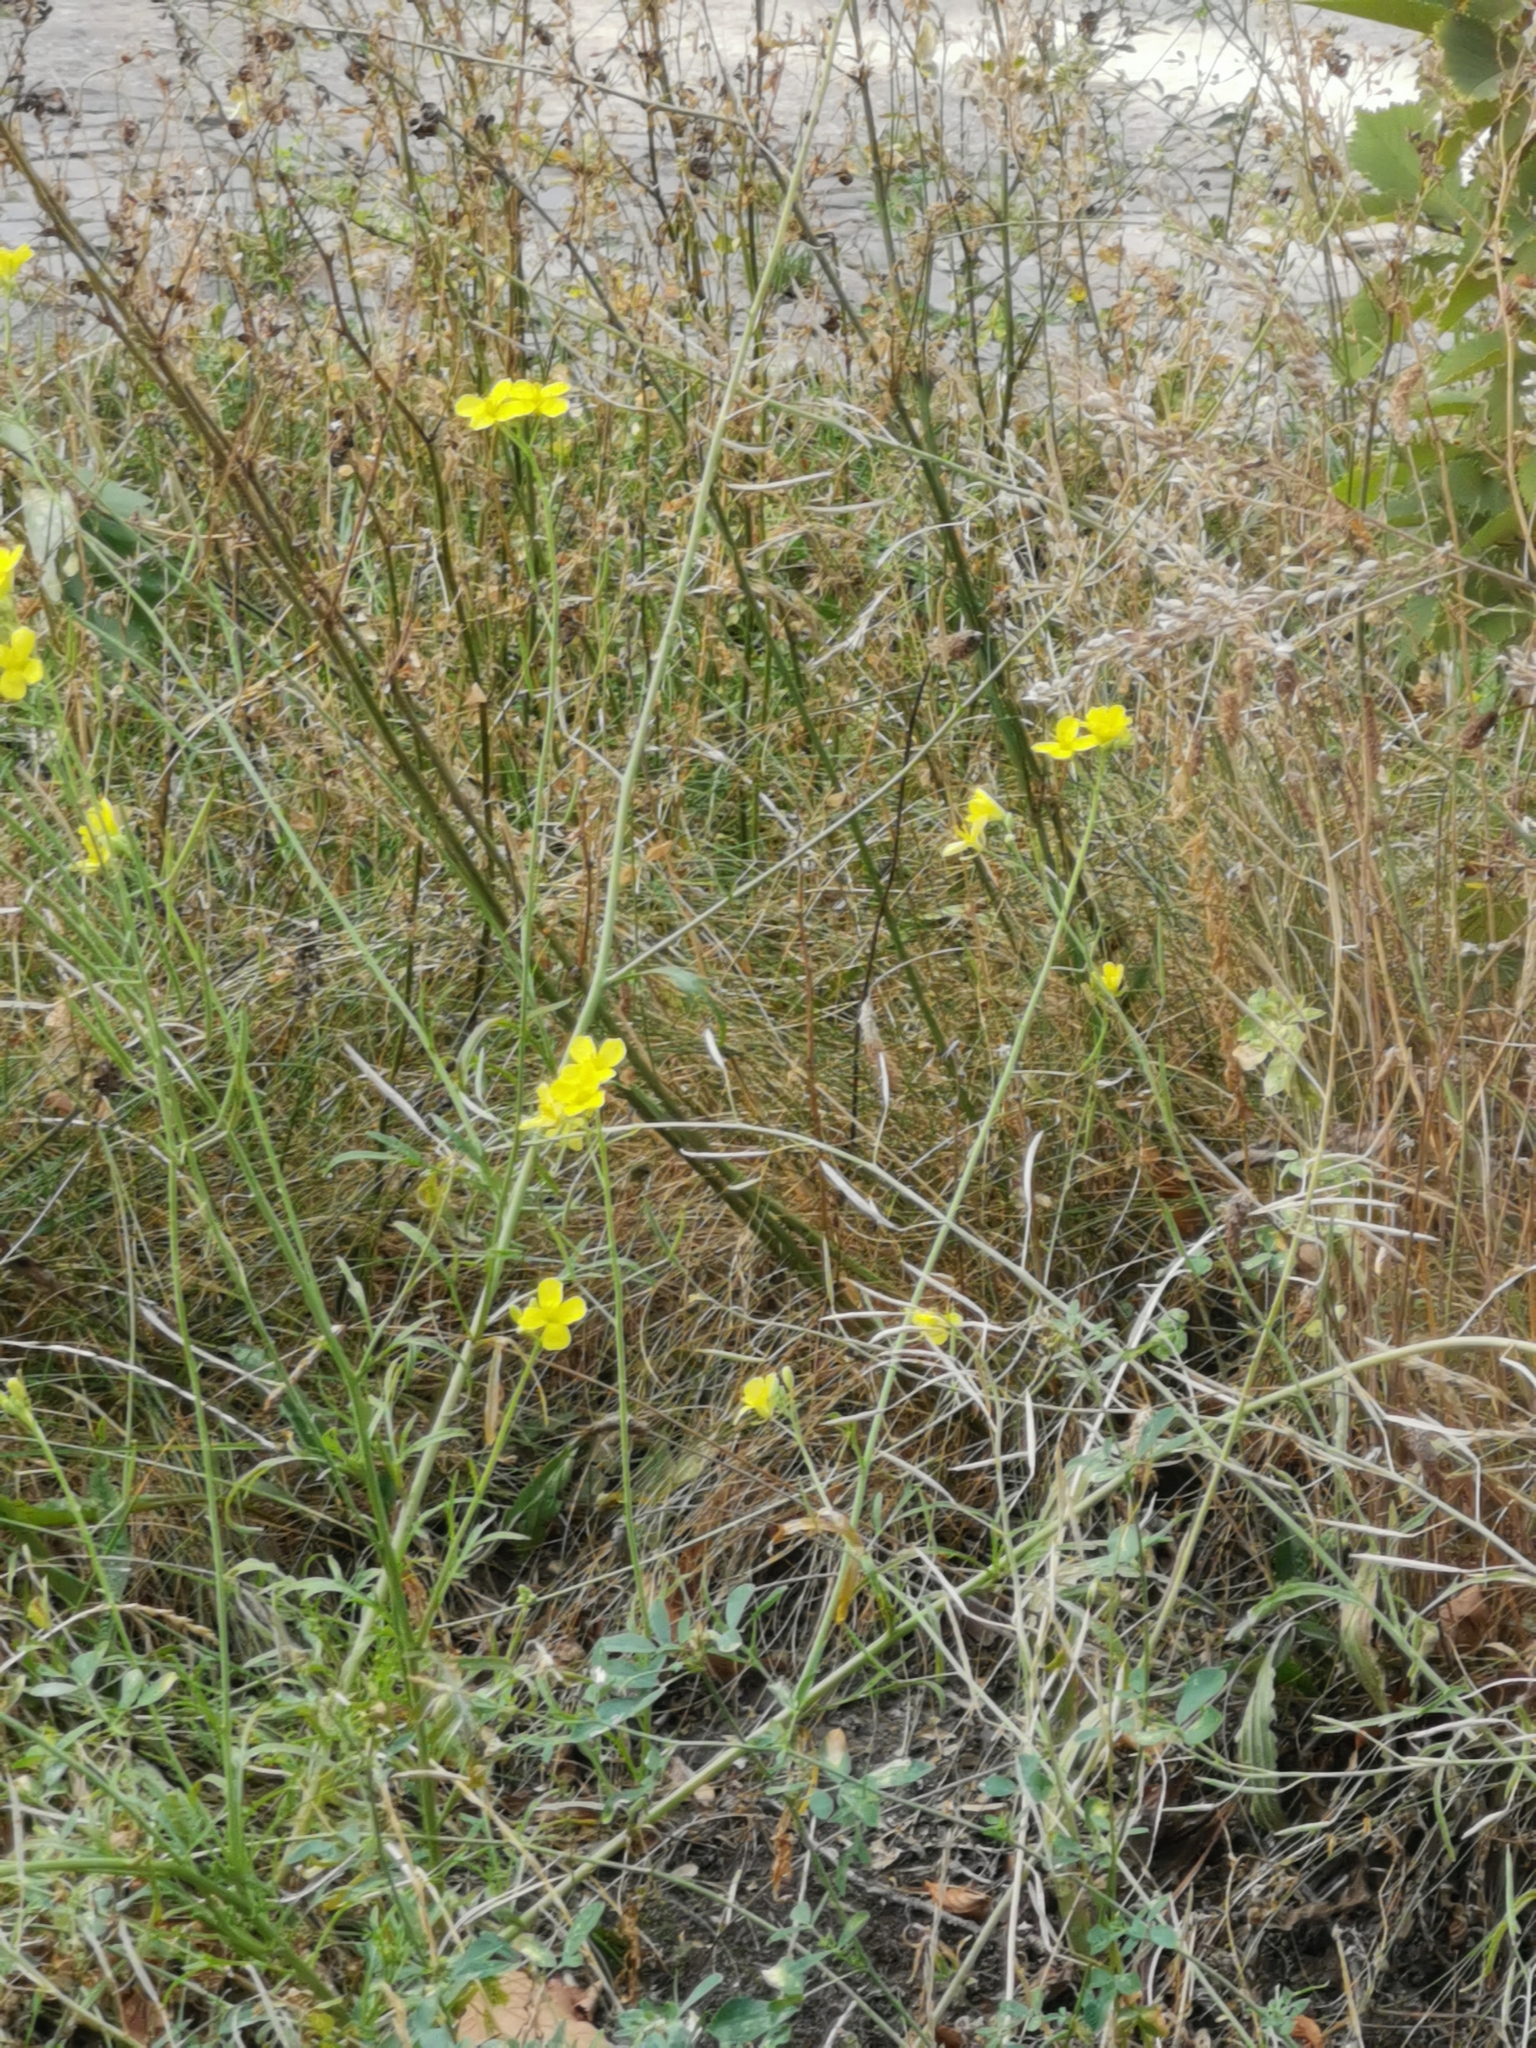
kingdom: Plantae
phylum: Tracheophyta
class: Magnoliopsida
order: Brassicales
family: Brassicaceae
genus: Diplotaxis
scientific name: Diplotaxis tenuifolia
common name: Perennial wall-rocket
